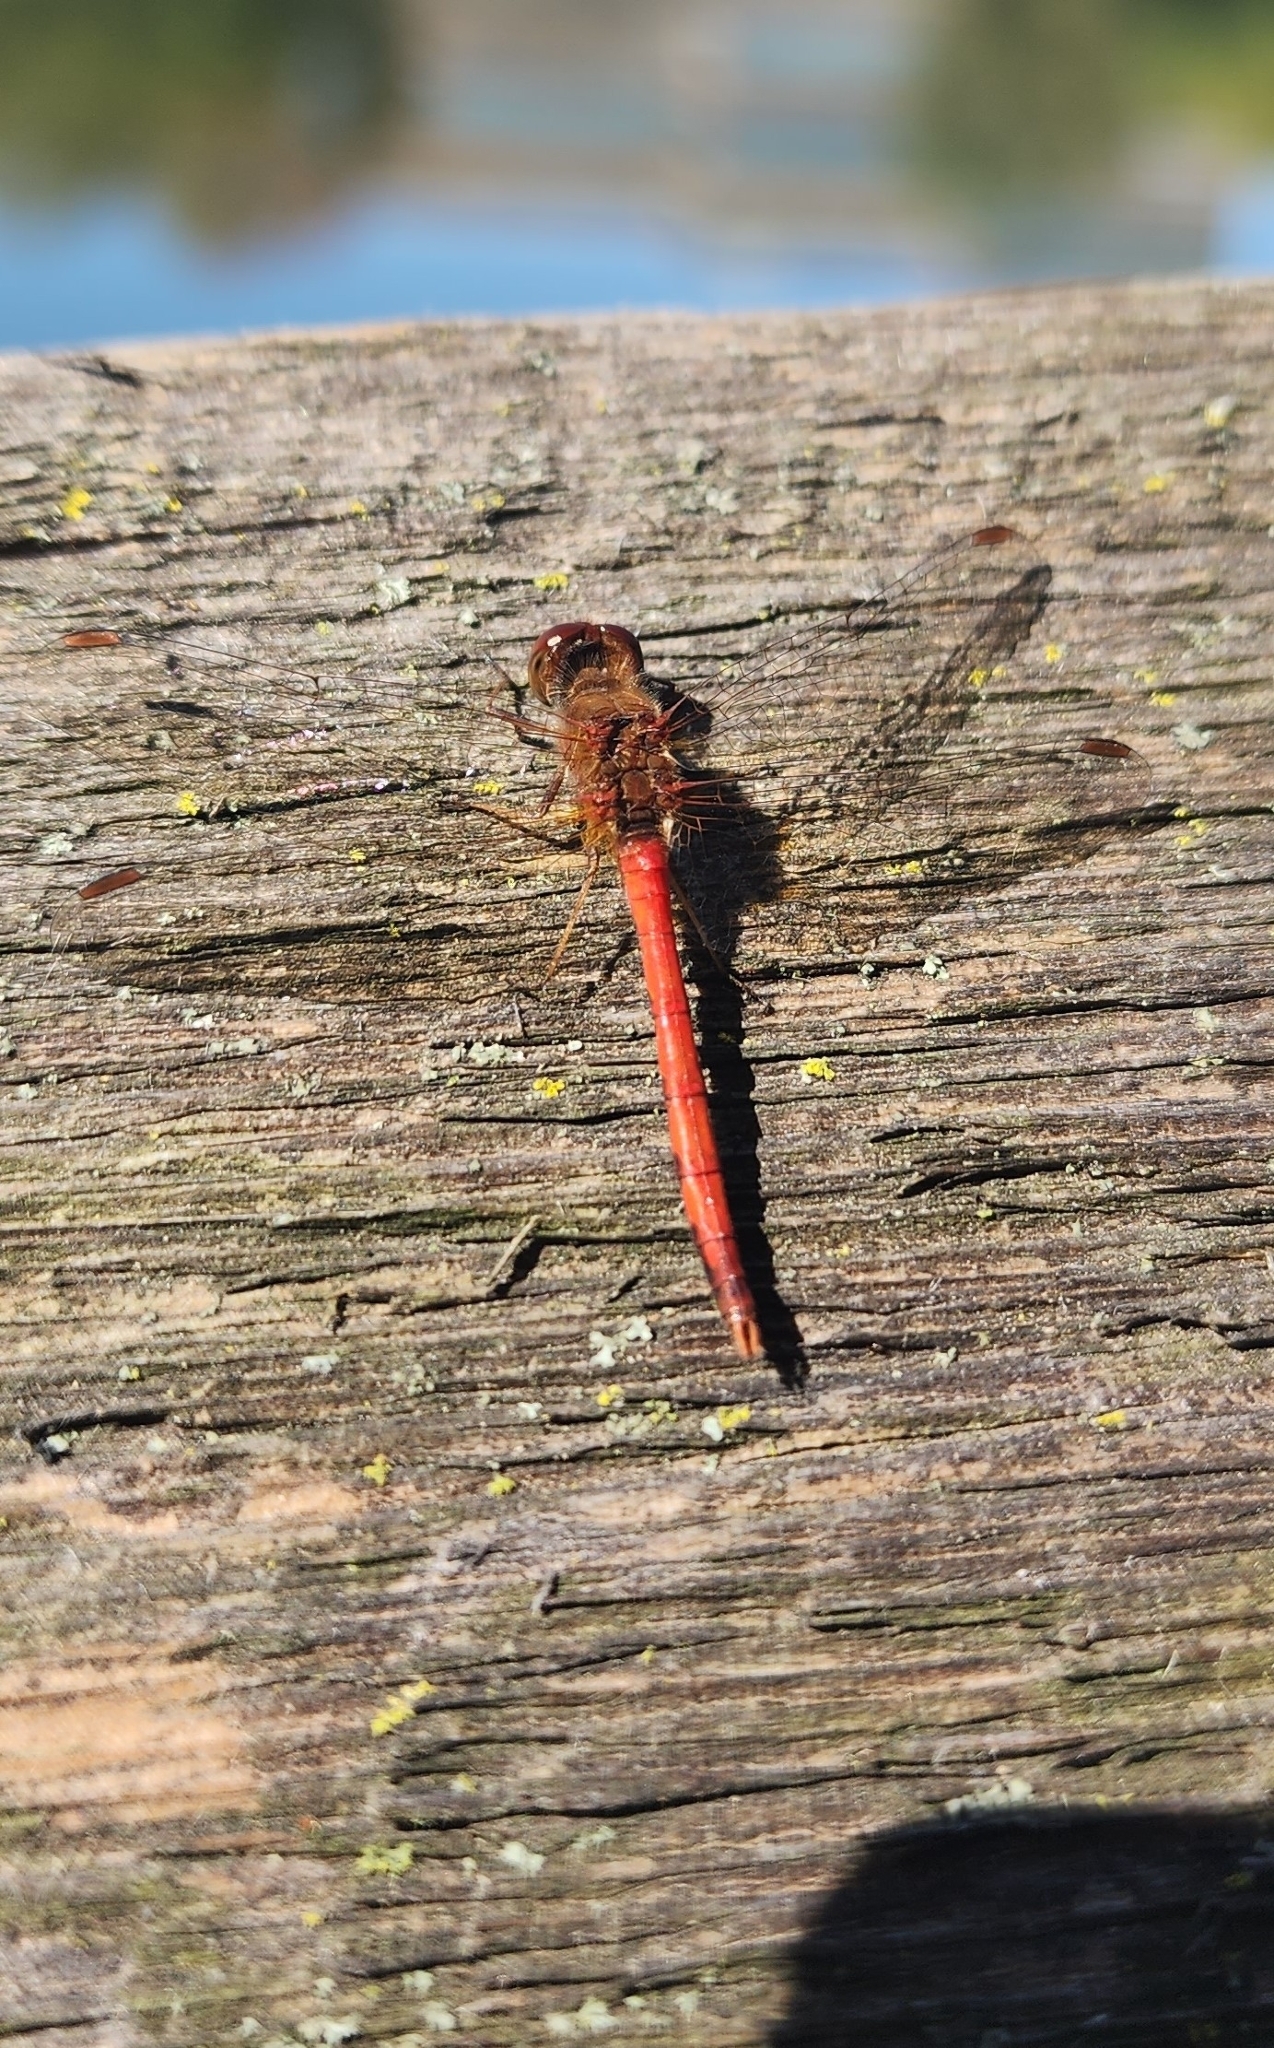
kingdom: Animalia
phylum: Arthropoda
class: Insecta
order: Odonata
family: Libellulidae
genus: Sympetrum
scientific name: Sympetrum vicinum
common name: Autumn meadowhawk
